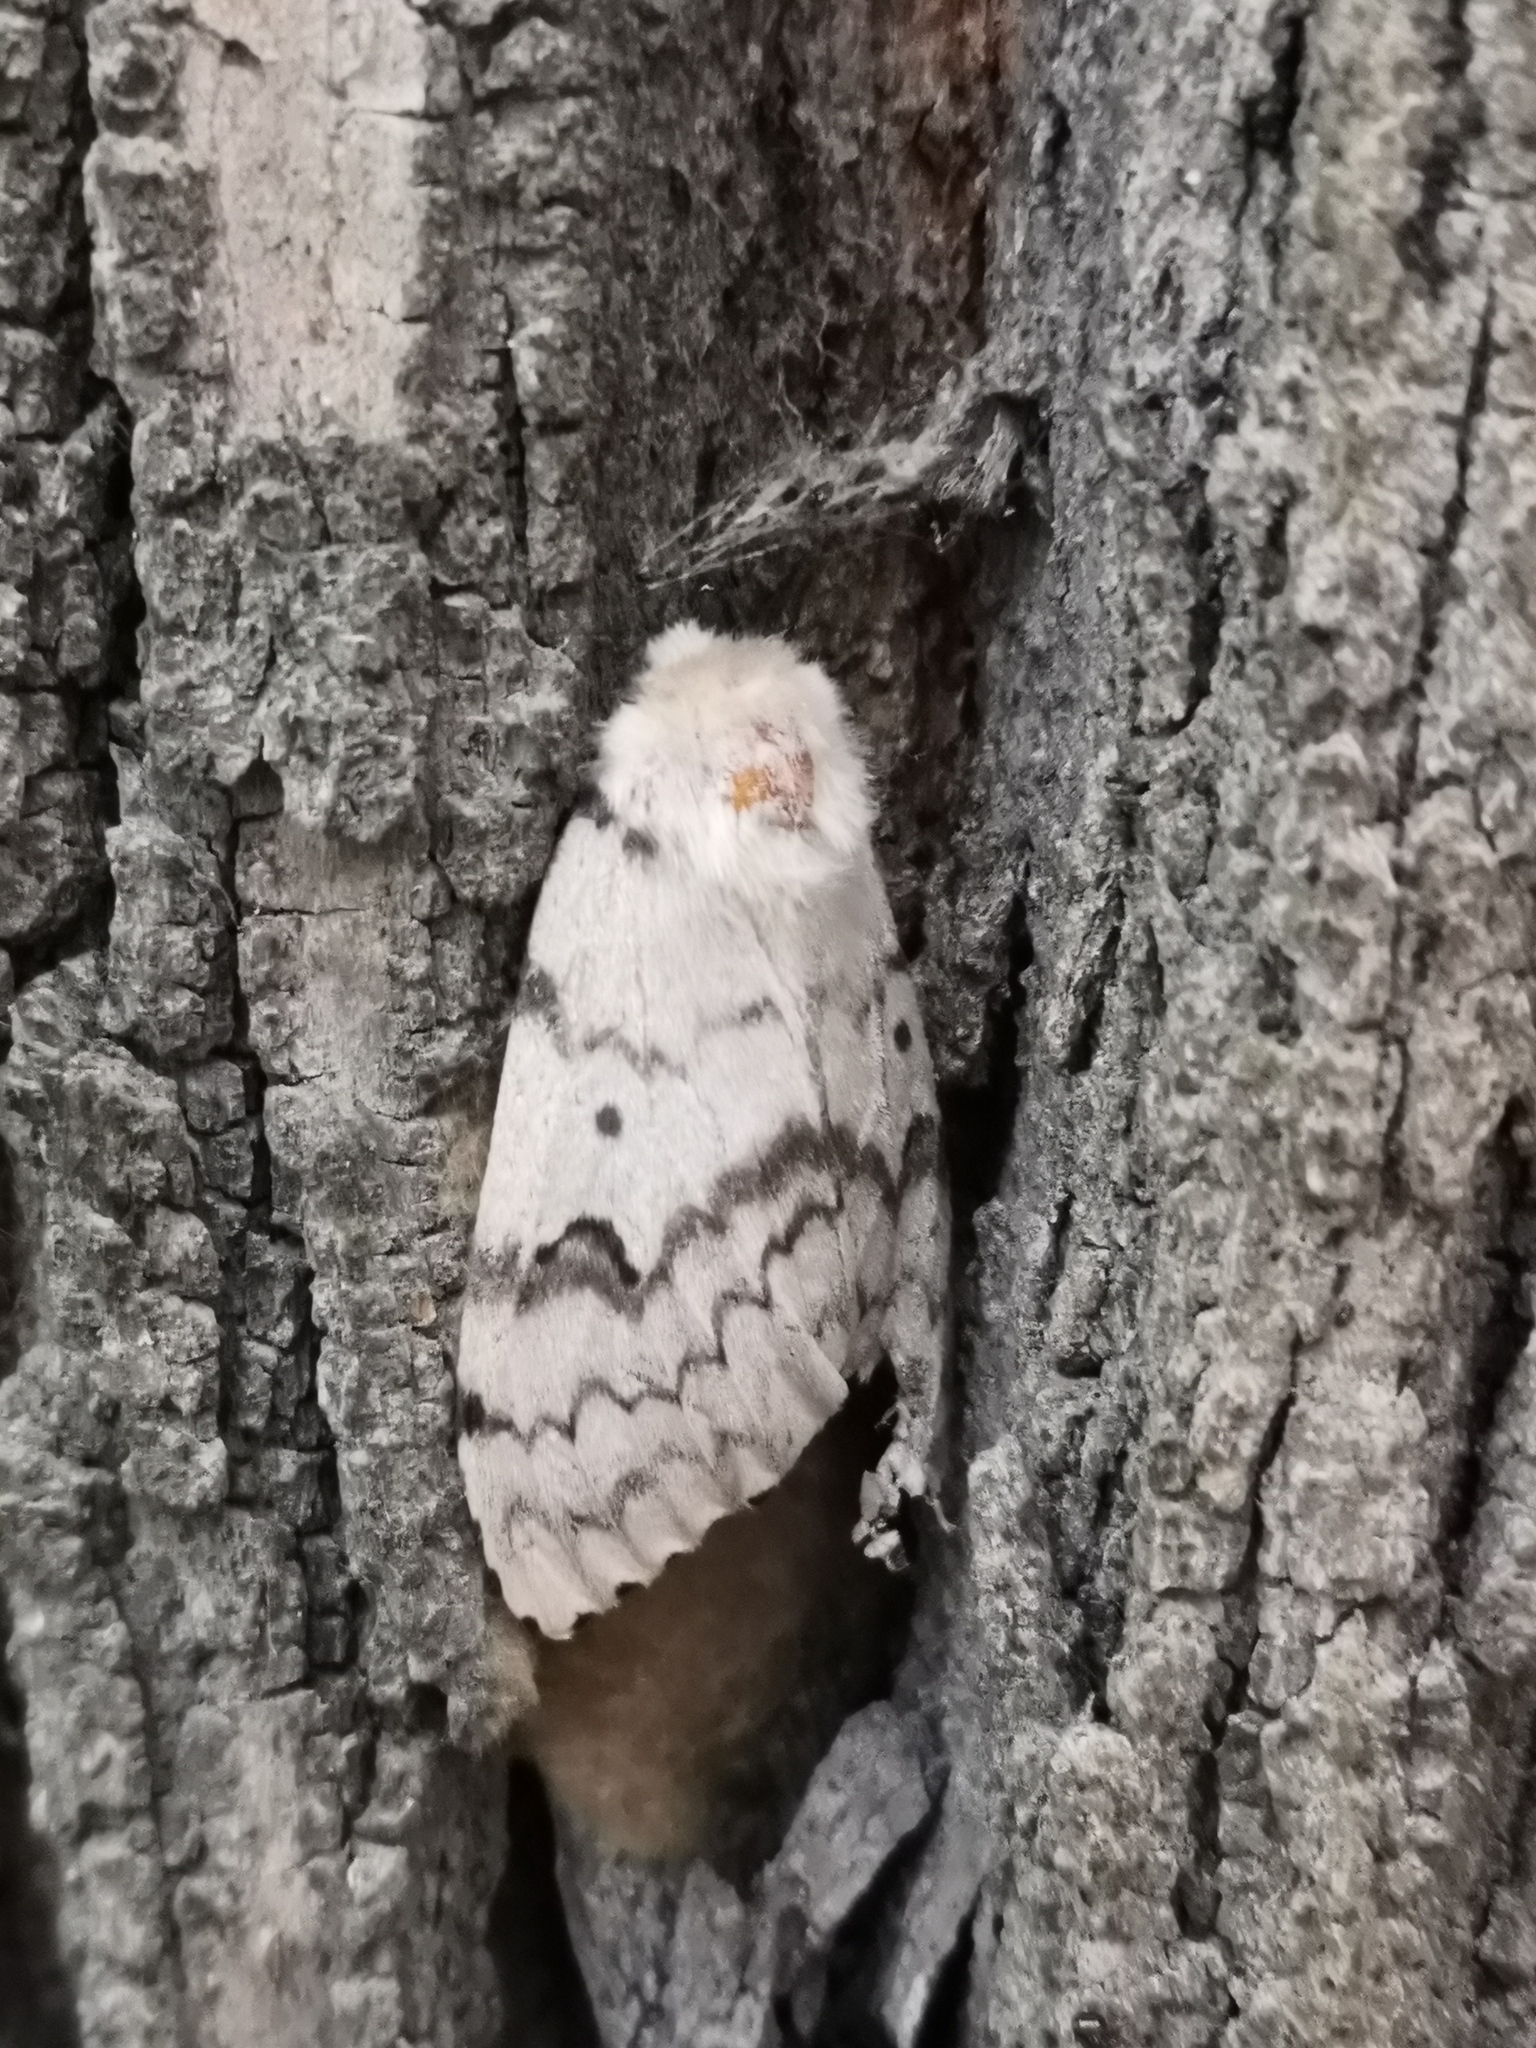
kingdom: Animalia
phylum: Arthropoda
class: Insecta
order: Lepidoptera
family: Erebidae
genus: Lymantria
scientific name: Lymantria dispar
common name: Gypsy moth
